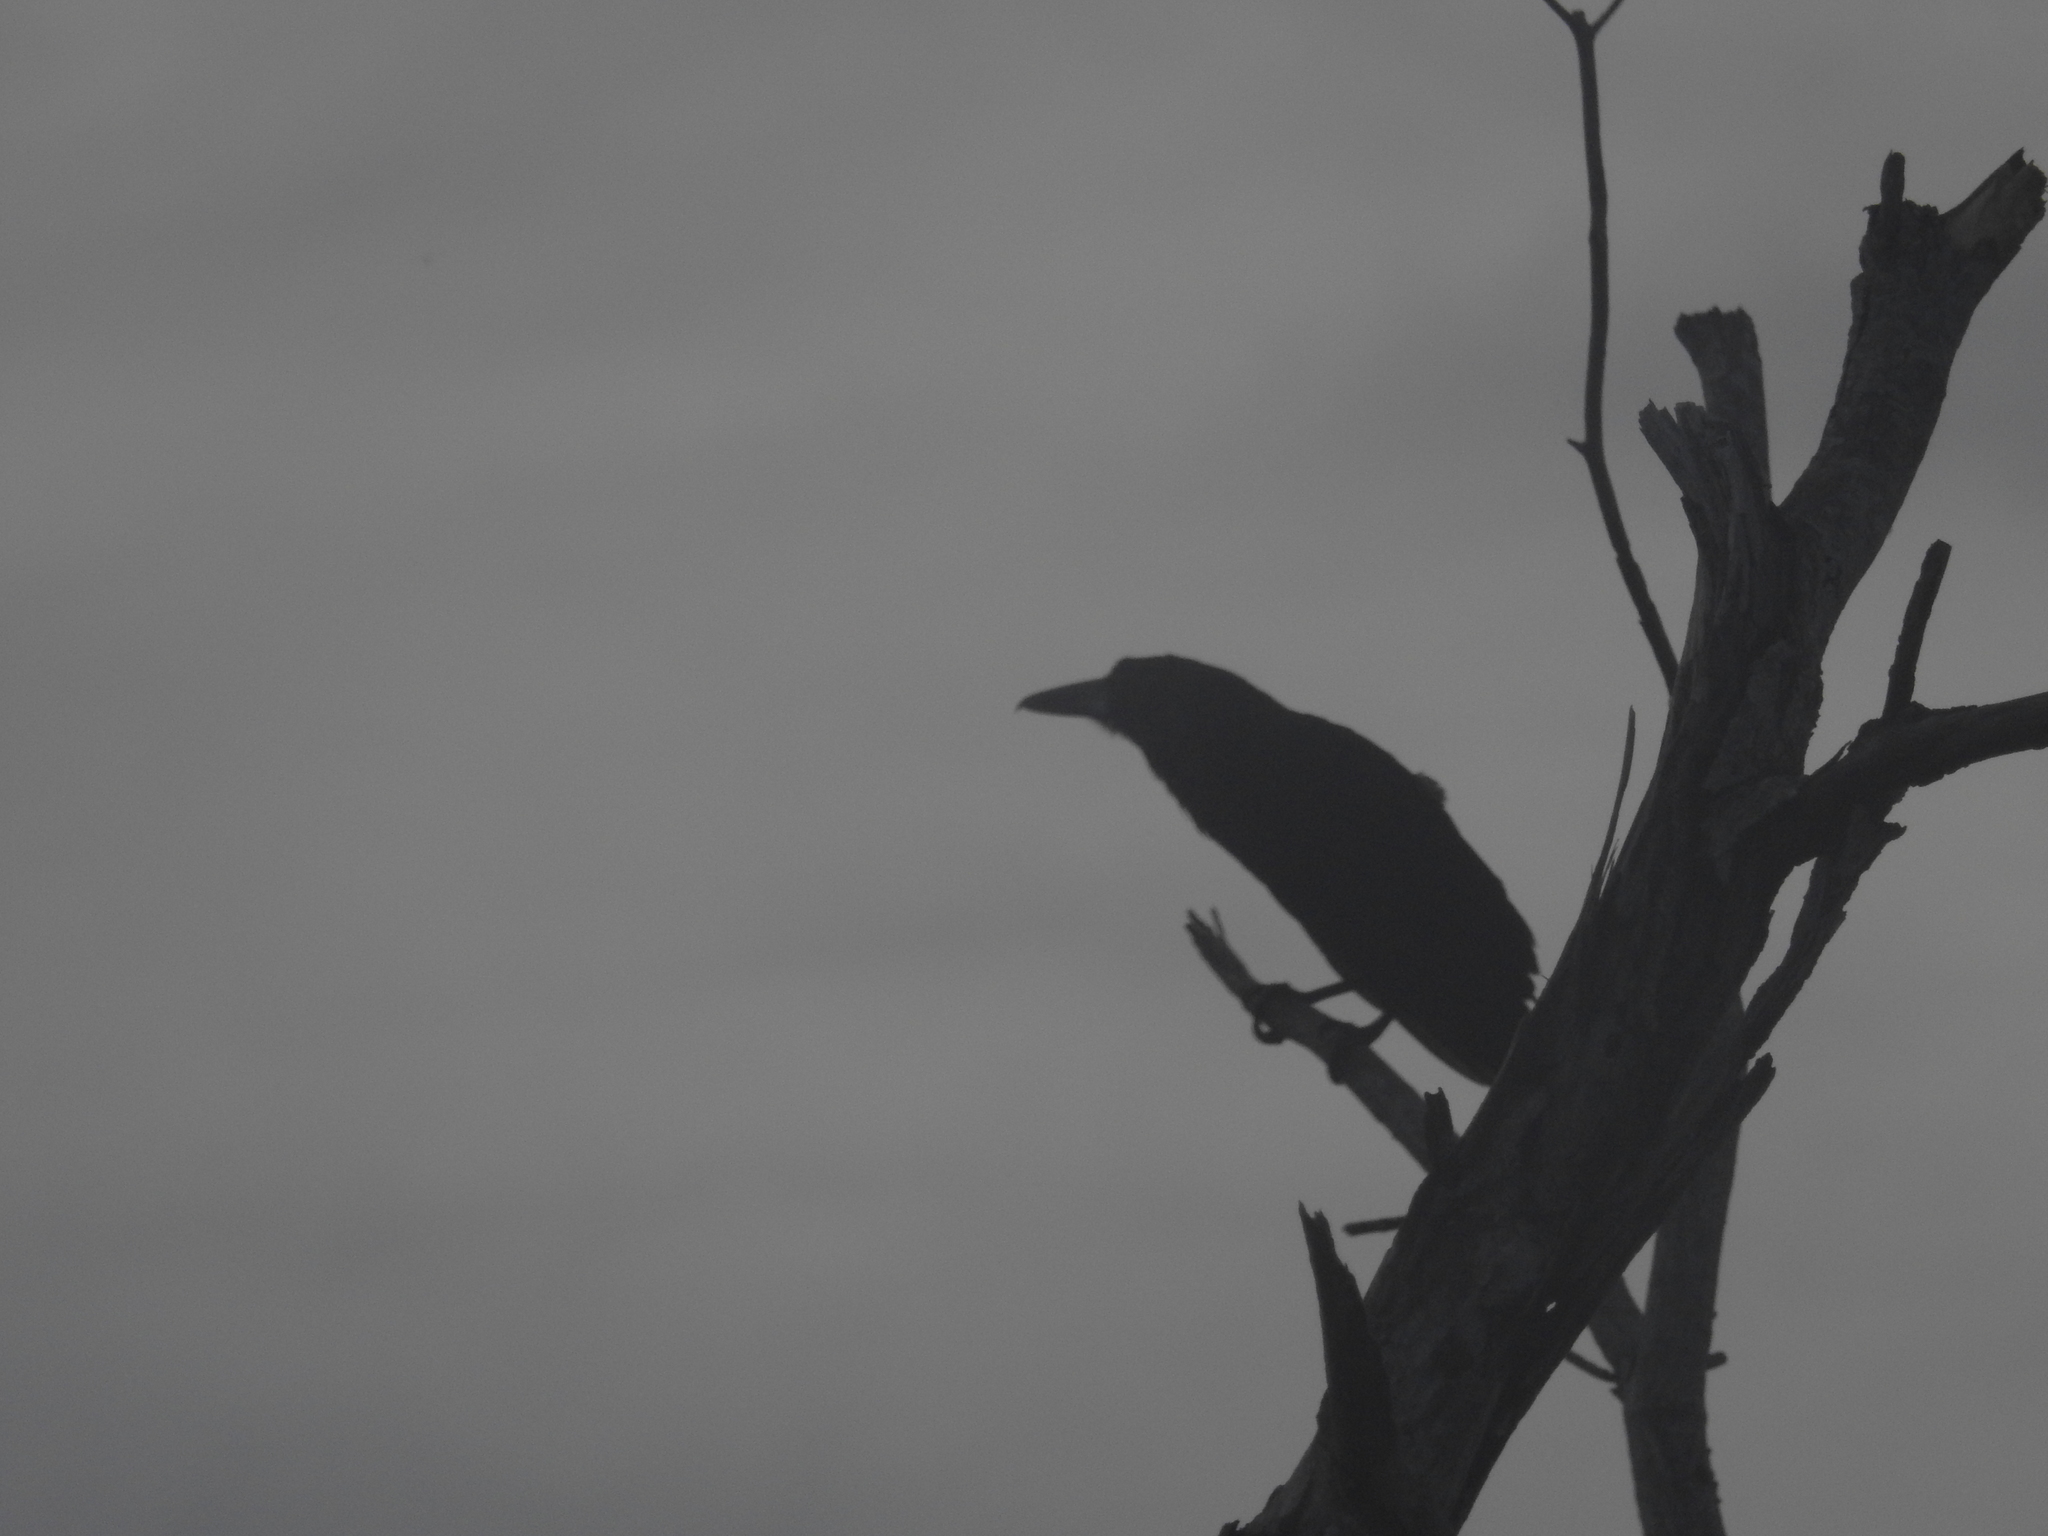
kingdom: Animalia
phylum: Chordata
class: Aves
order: Passeriformes
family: Artamidae
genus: Melloria
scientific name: Melloria quoyi
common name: Black butcherbird
